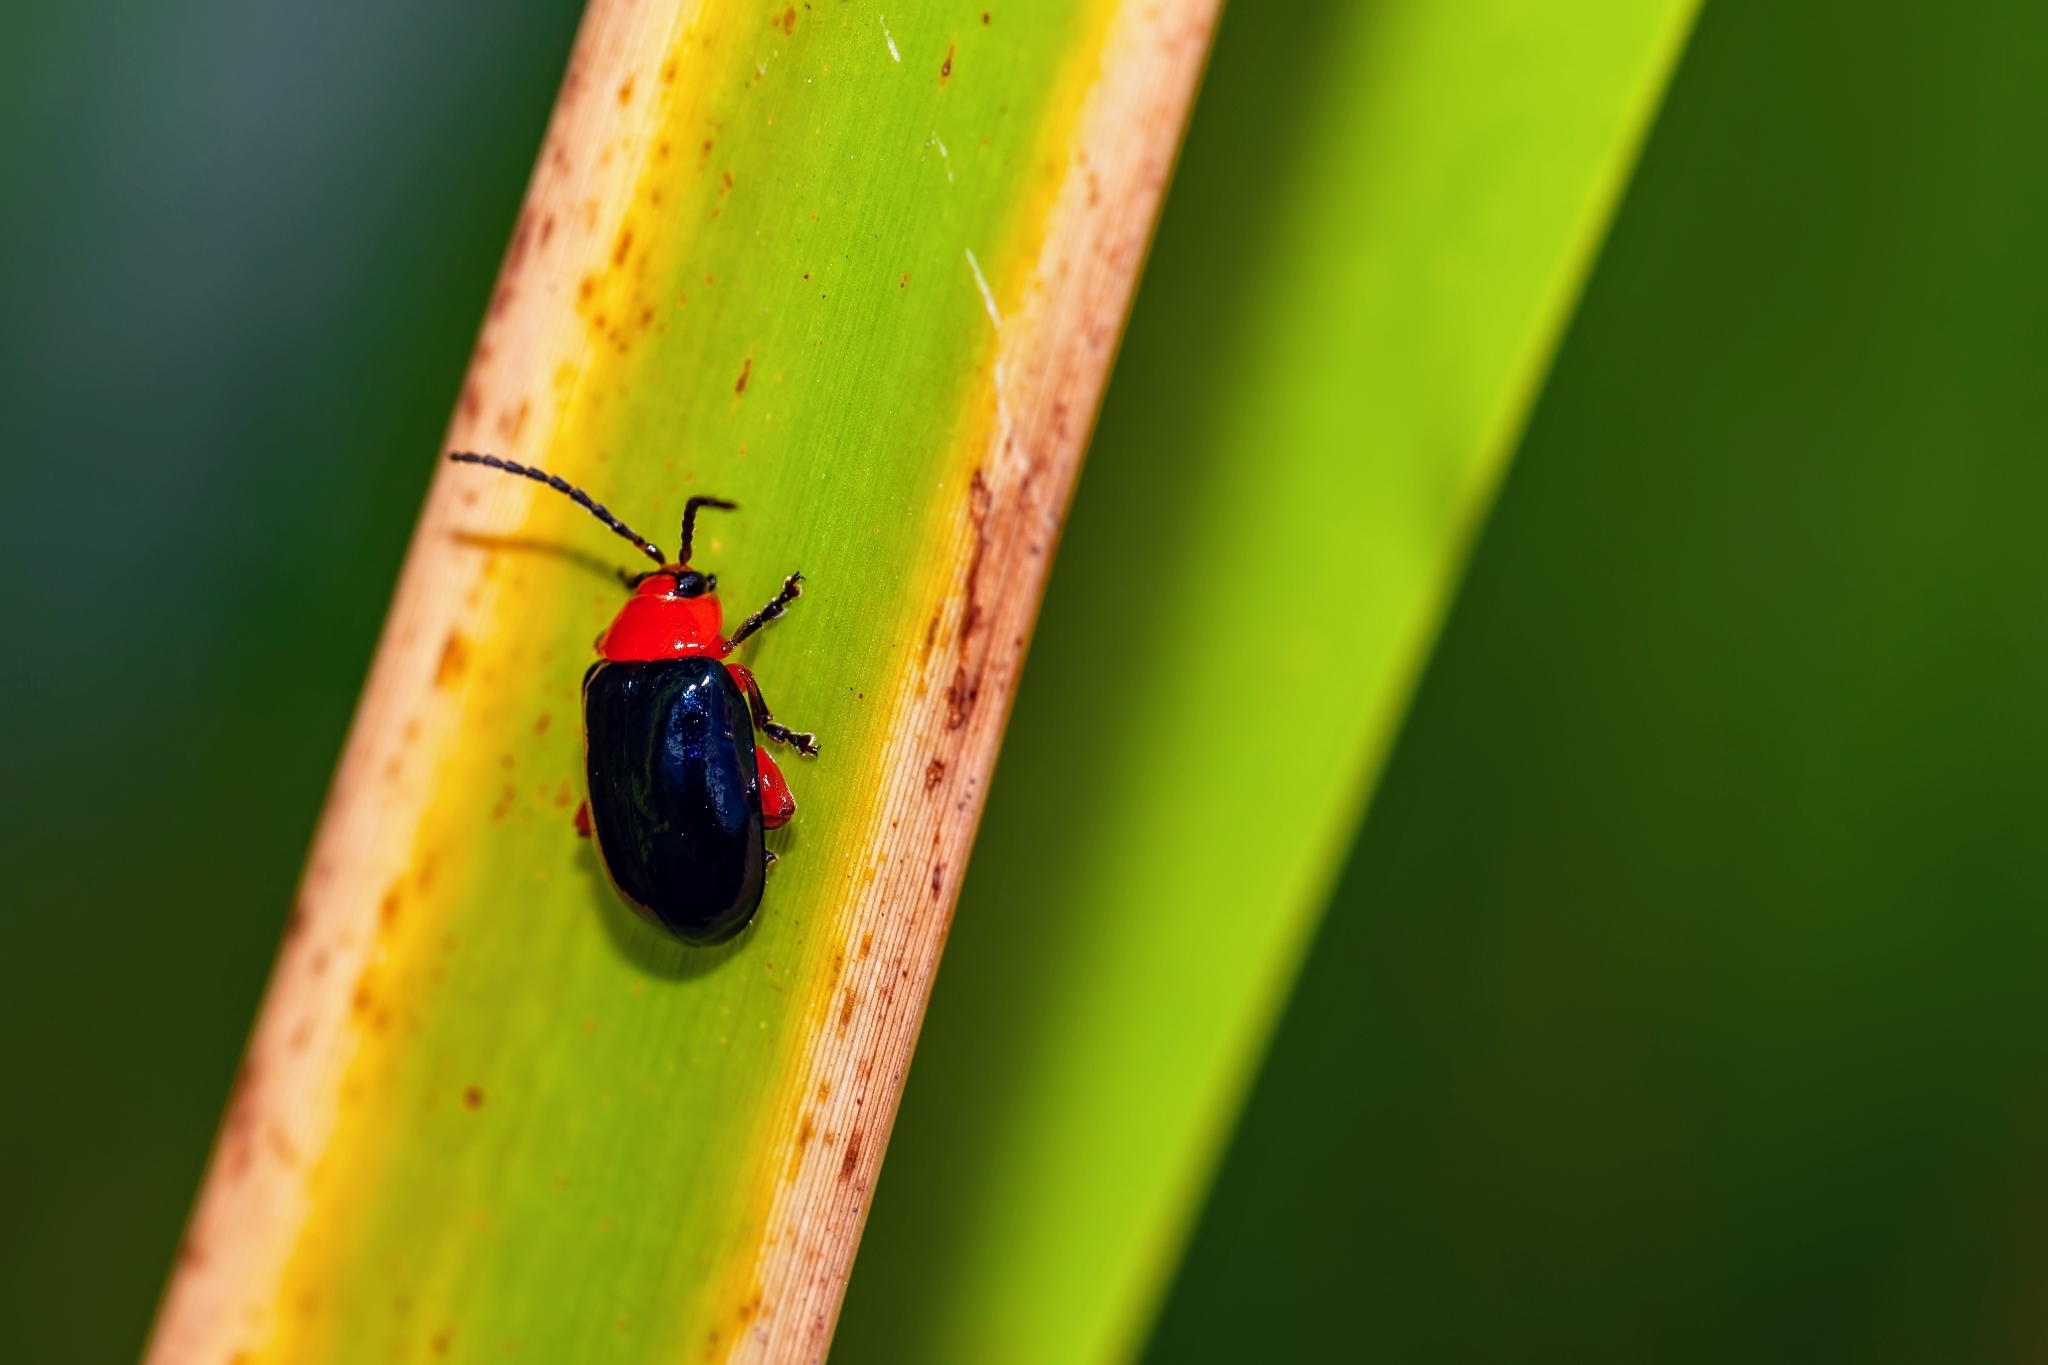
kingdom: Animalia
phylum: Arthropoda
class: Insecta
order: Coleoptera
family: Chrysomelidae
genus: Asphaera
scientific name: Asphaera lustrans
